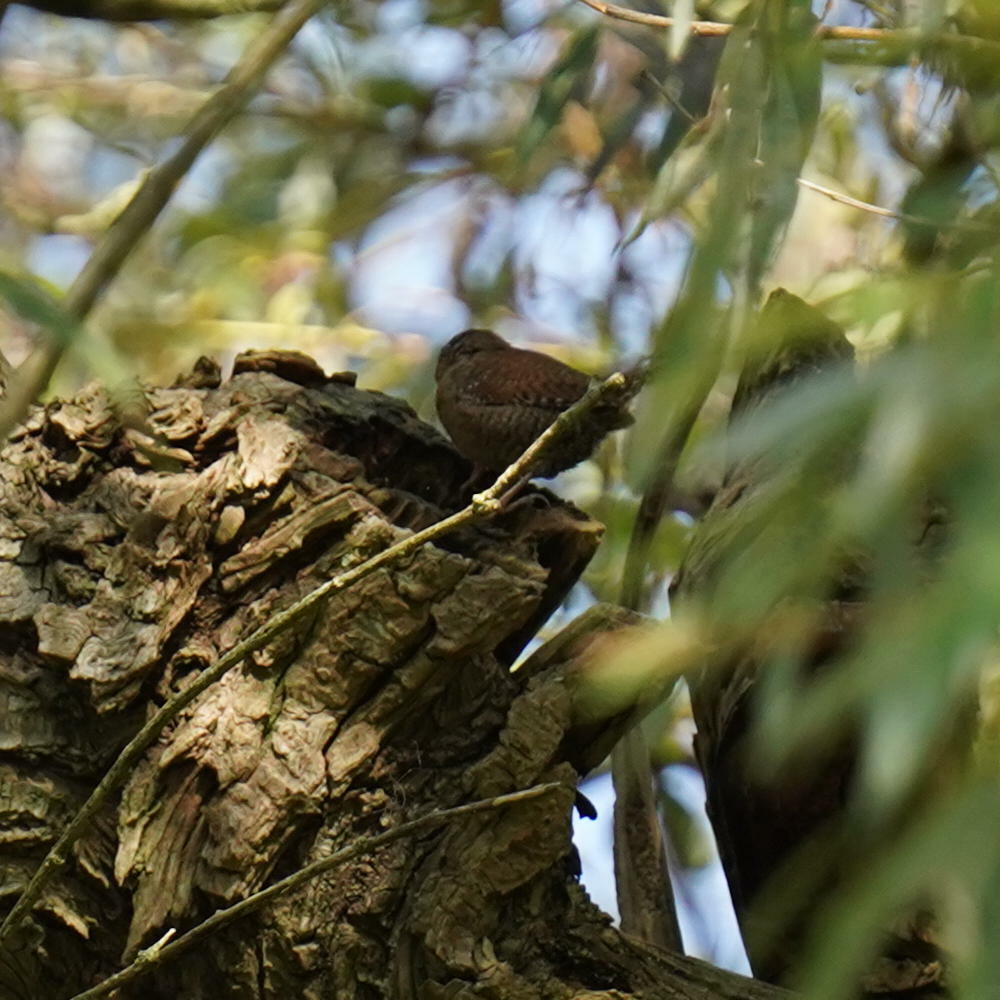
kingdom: Animalia
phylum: Chordata
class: Aves
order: Passeriformes
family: Troglodytidae
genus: Troglodytes
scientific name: Troglodytes troglodytes
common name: Eurasian wren
